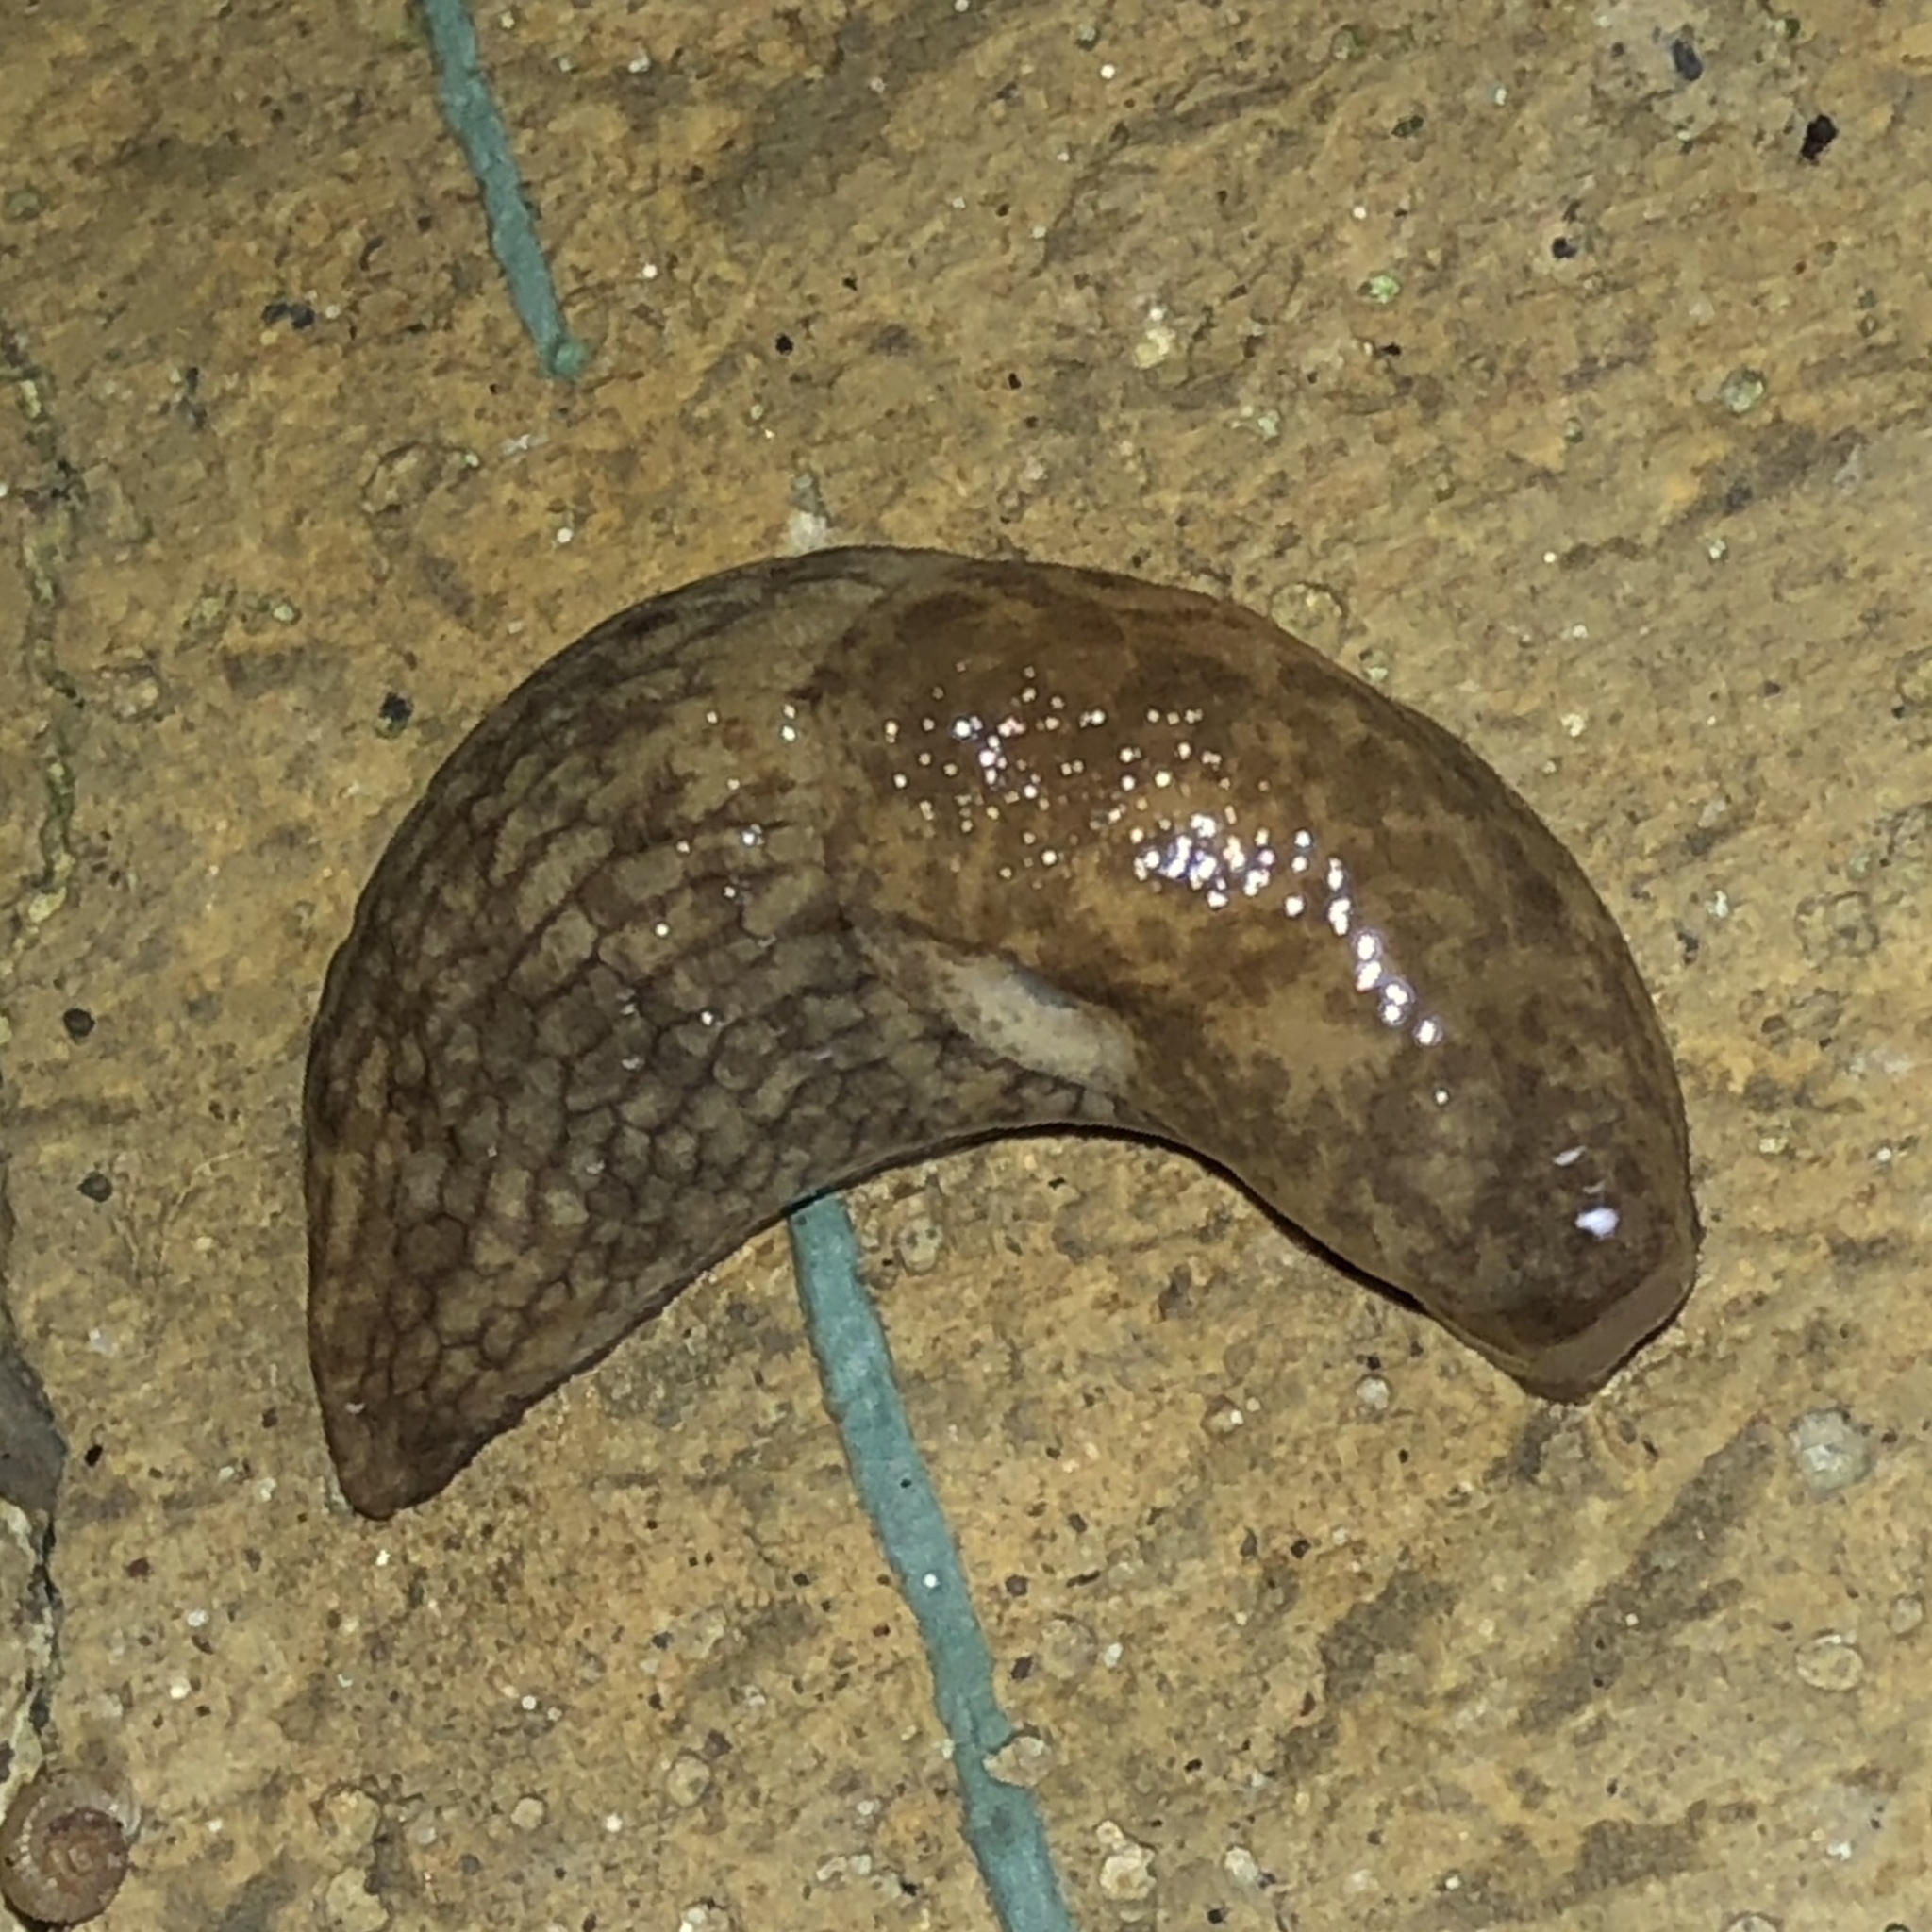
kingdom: Animalia
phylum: Mollusca
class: Gastropoda
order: Stylommatophora
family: Agriolimacidae
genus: Deroceras
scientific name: Deroceras reticulatum
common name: Gray field slug
